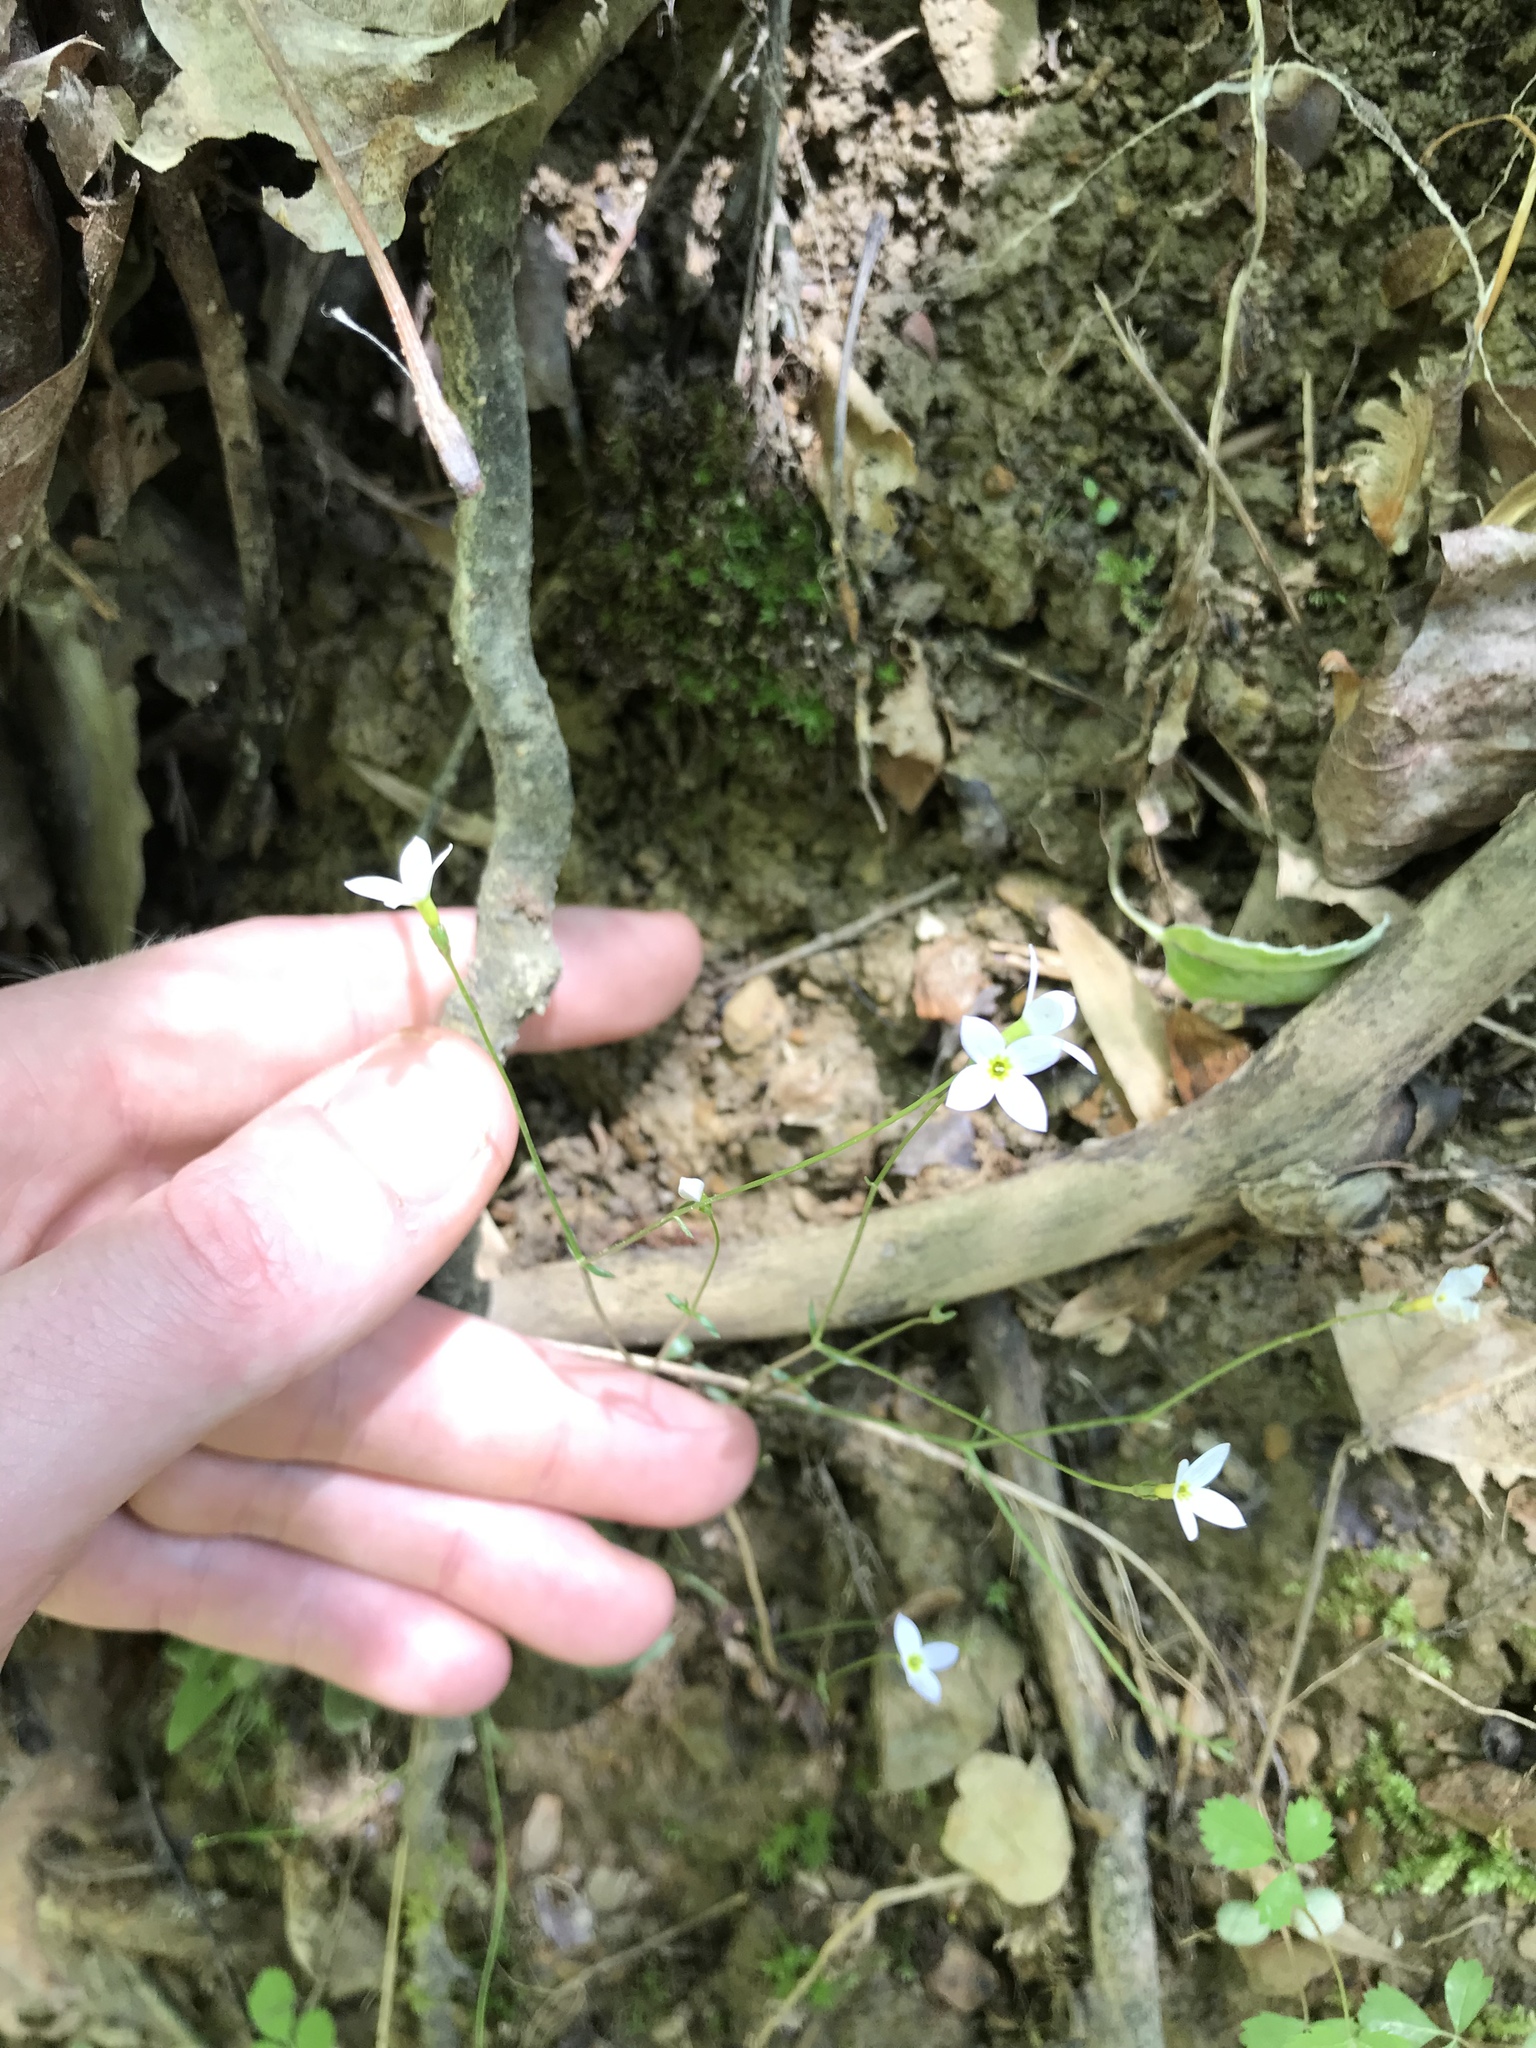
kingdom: Plantae
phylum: Tracheophyta
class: Magnoliopsida
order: Gentianales
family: Rubiaceae
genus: Houstonia
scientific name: Houstonia caerulea
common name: Bluets
